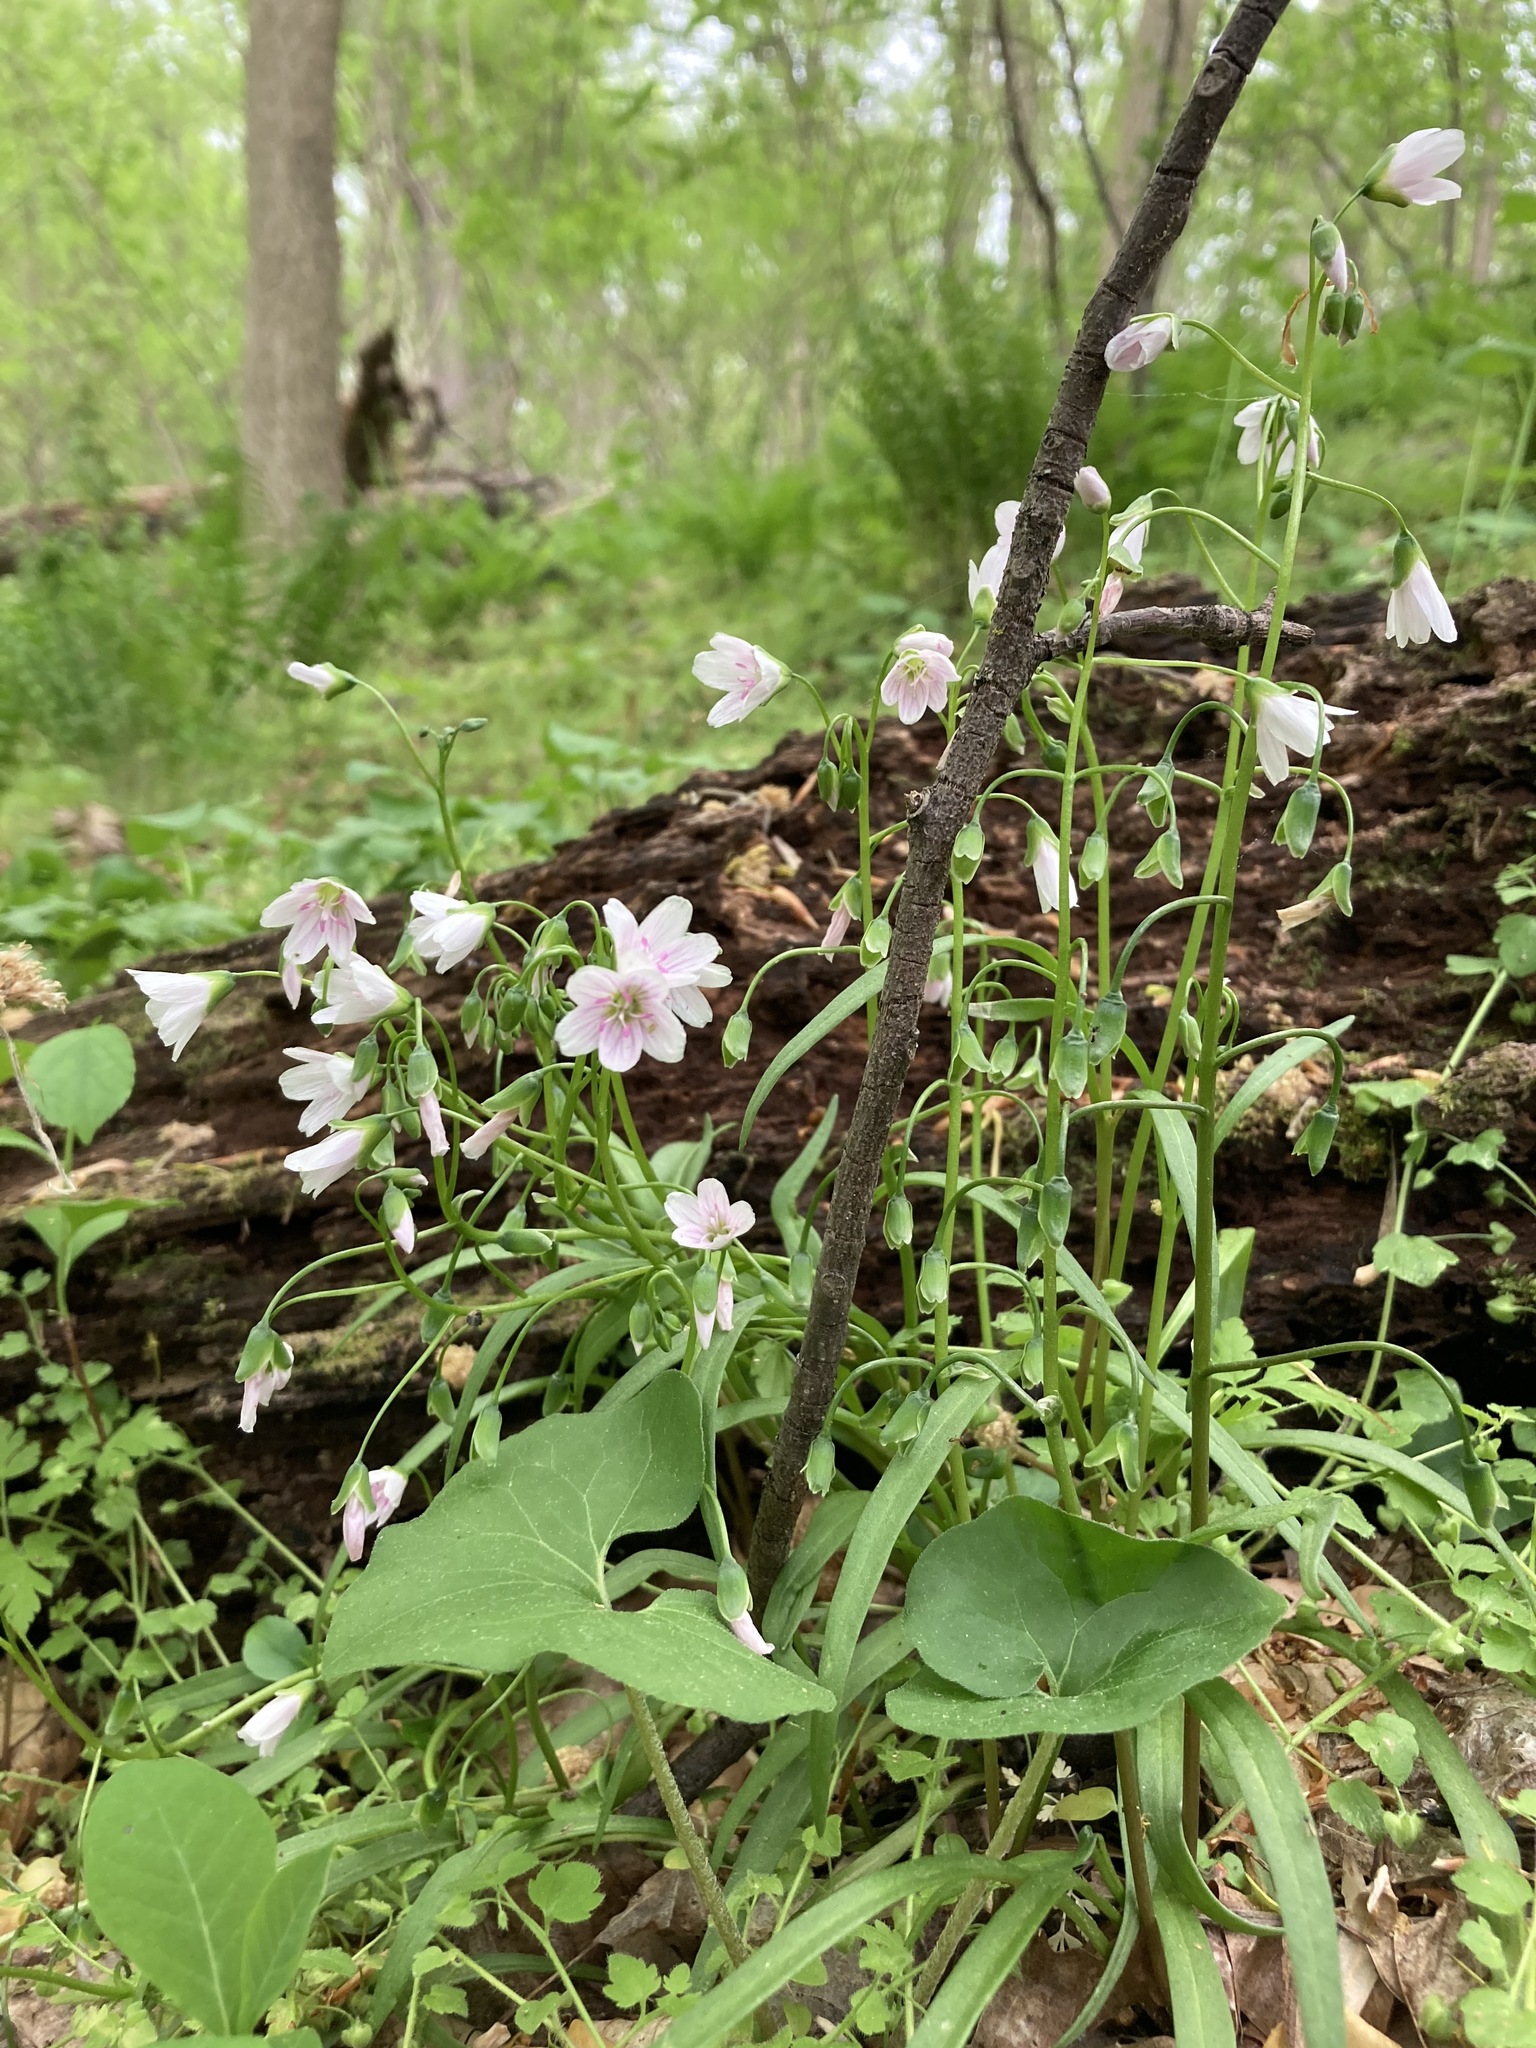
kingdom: Plantae
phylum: Tracheophyta
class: Magnoliopsida
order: Caryophyllales
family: Montiaceae
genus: Claytonia
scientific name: Claytonia virginica
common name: Virginia springbeauty
